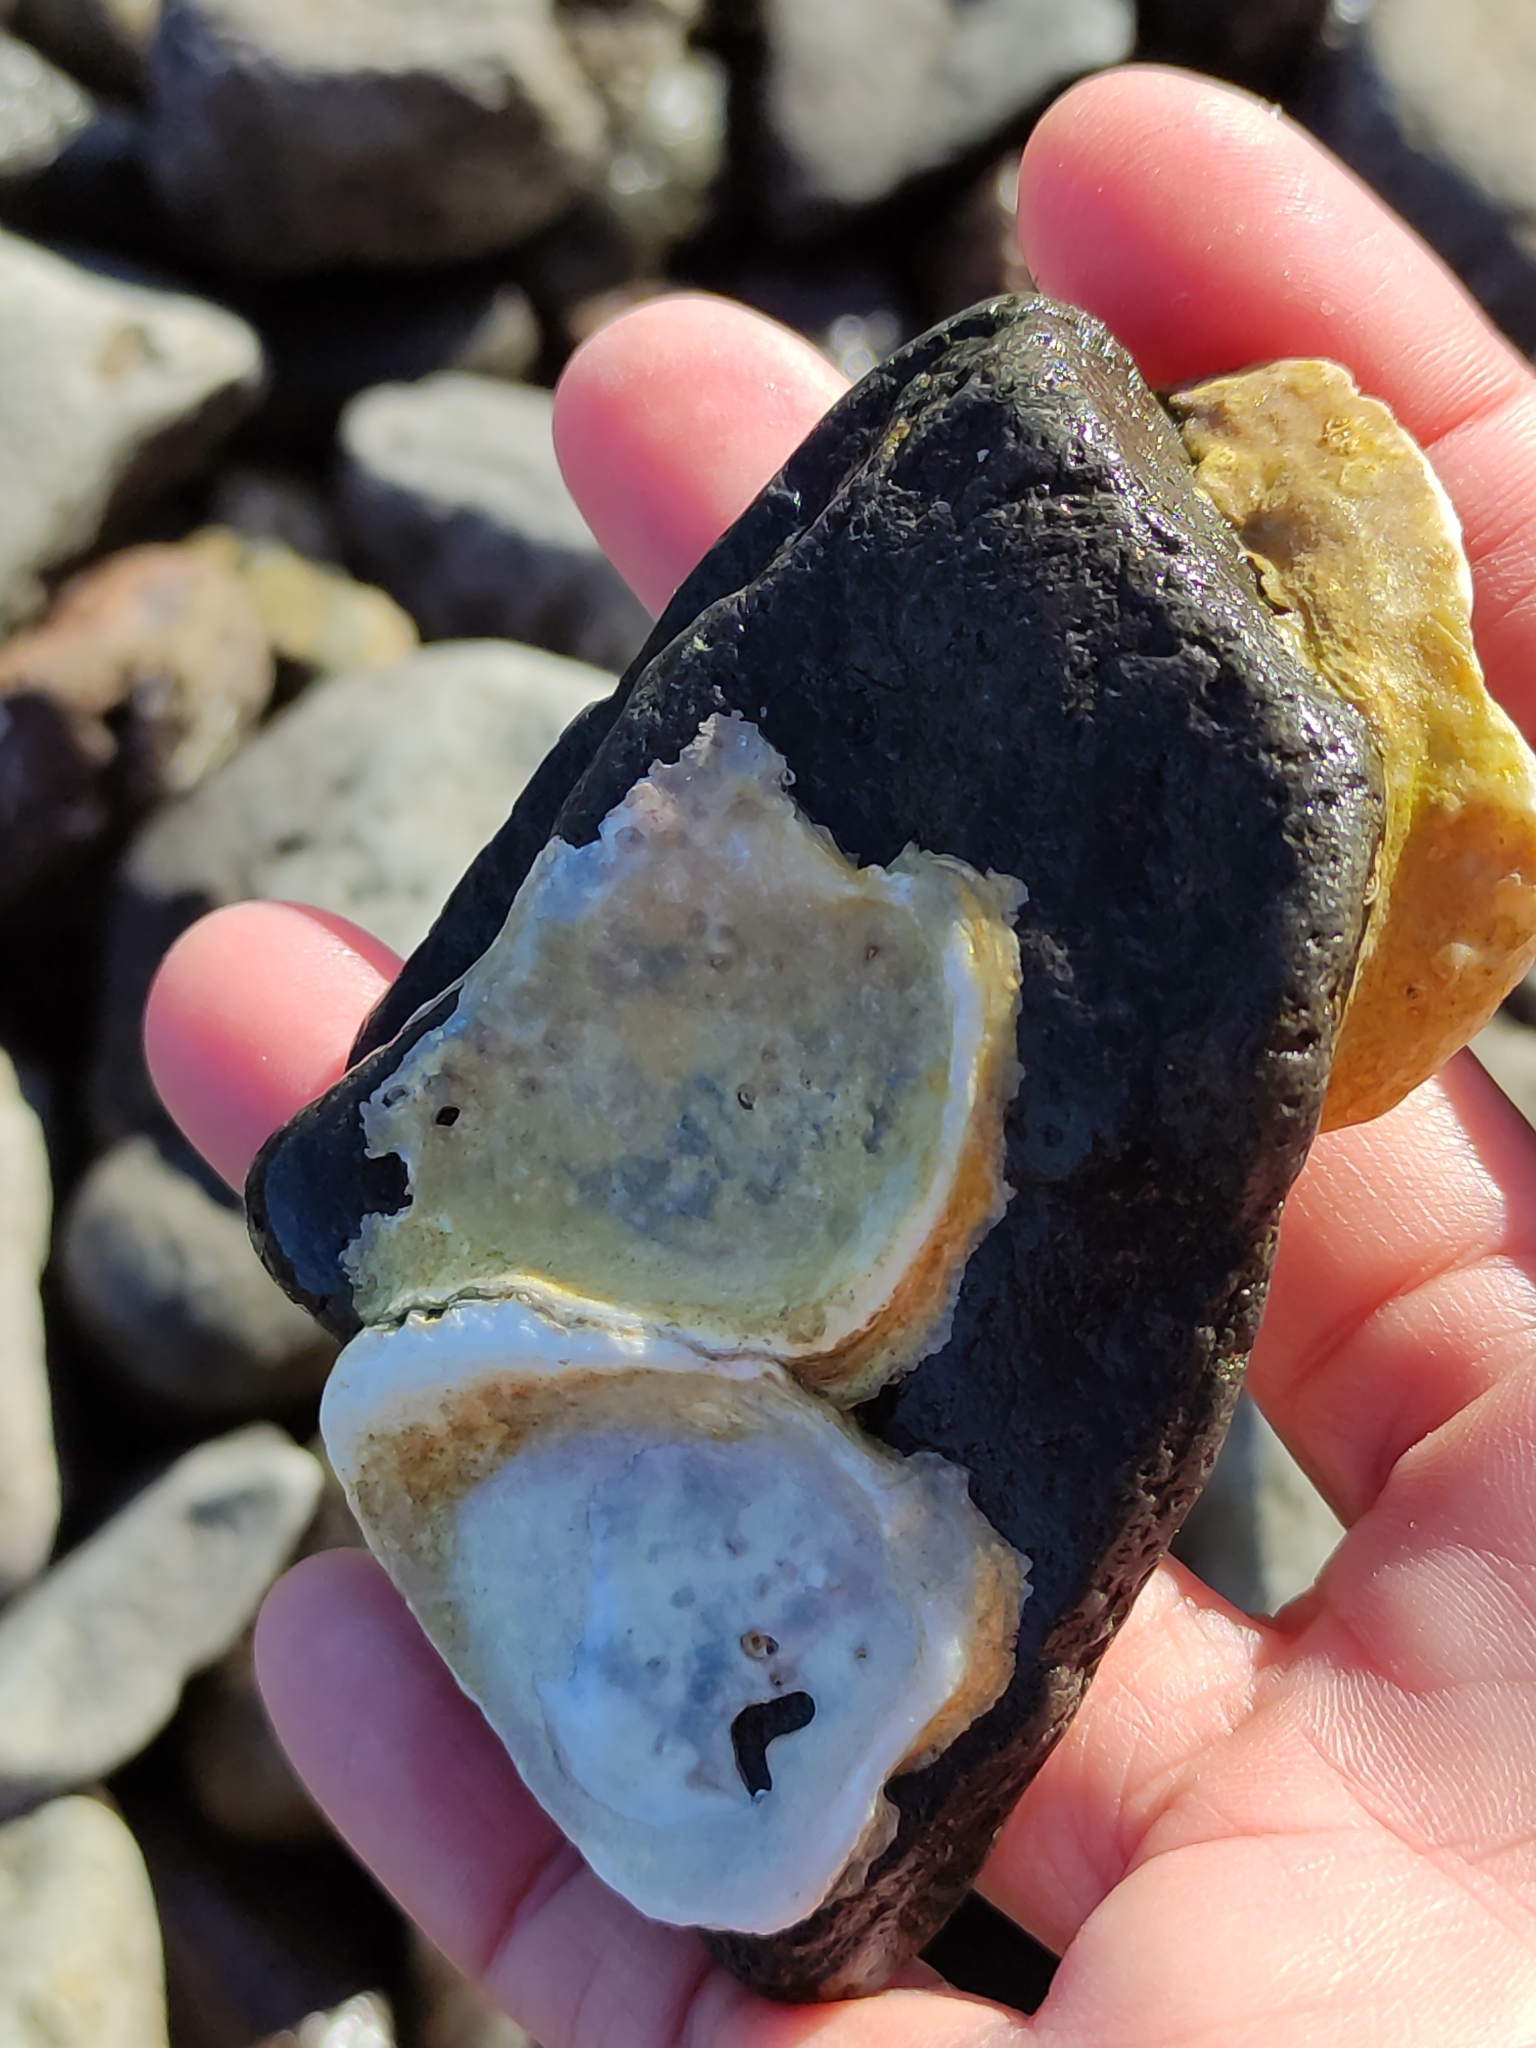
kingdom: Animalia
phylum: Mollusca
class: Bivalvia
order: Ostreida
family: Ostreidae
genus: Ostrea
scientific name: Ostrea chilensis
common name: Chilean oyster
